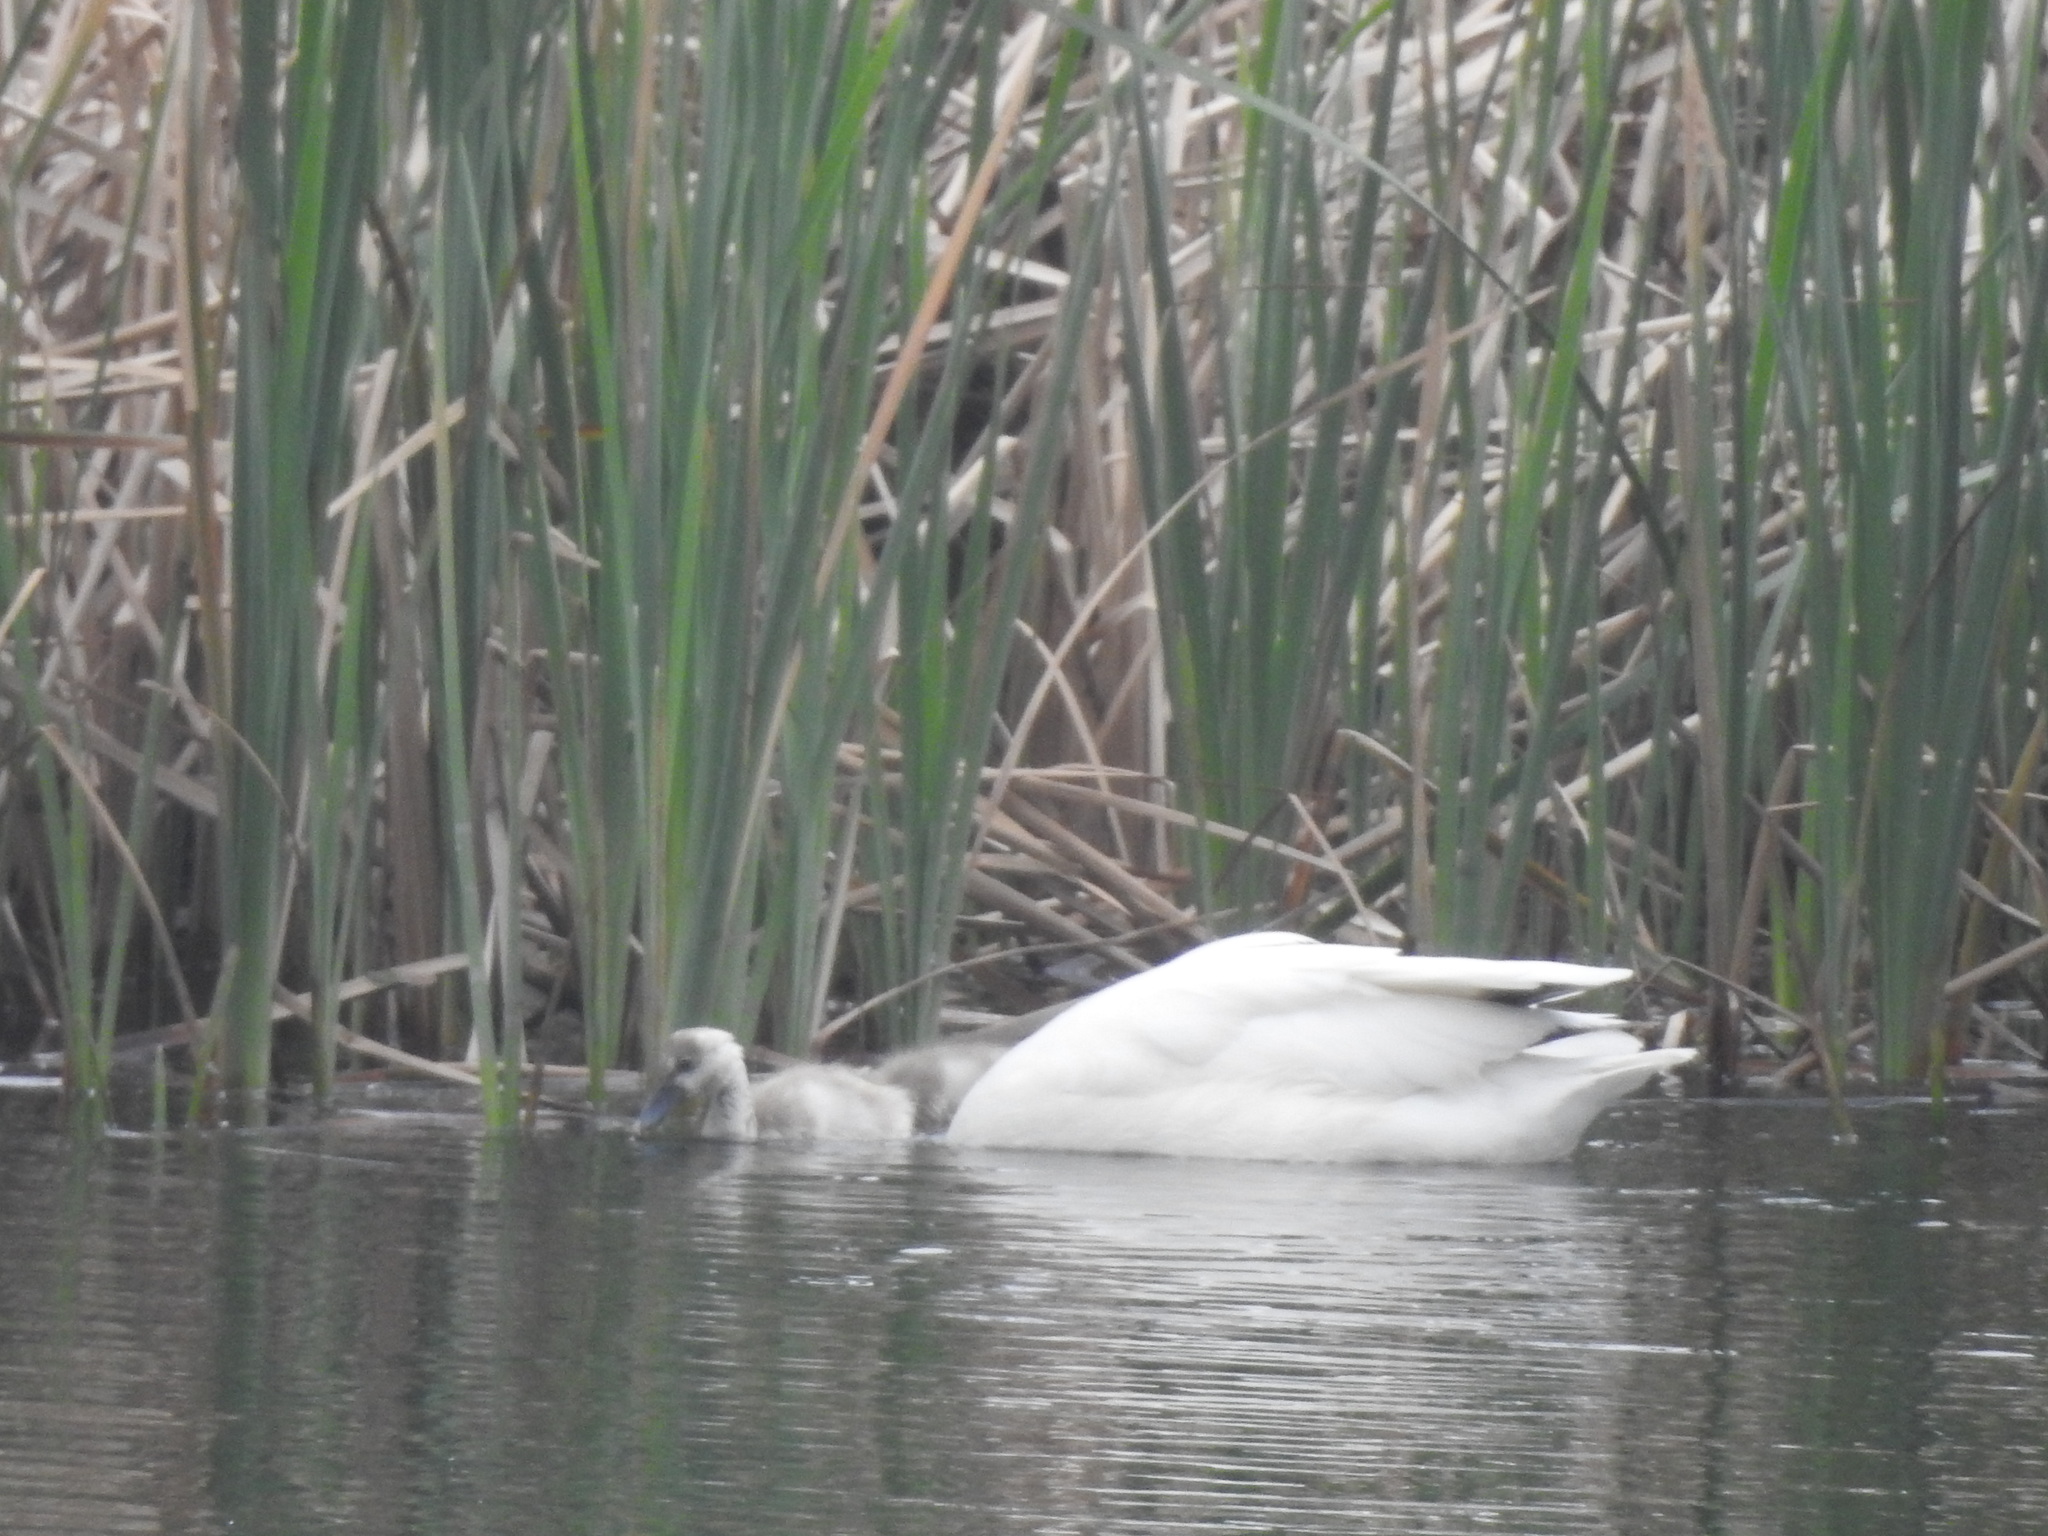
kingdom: Animalia
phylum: Chordata
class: Aves
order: Anseriformes
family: Anatidae
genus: Coscoroba
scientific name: Coscoroba coscoroba
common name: Coscoroba swan
